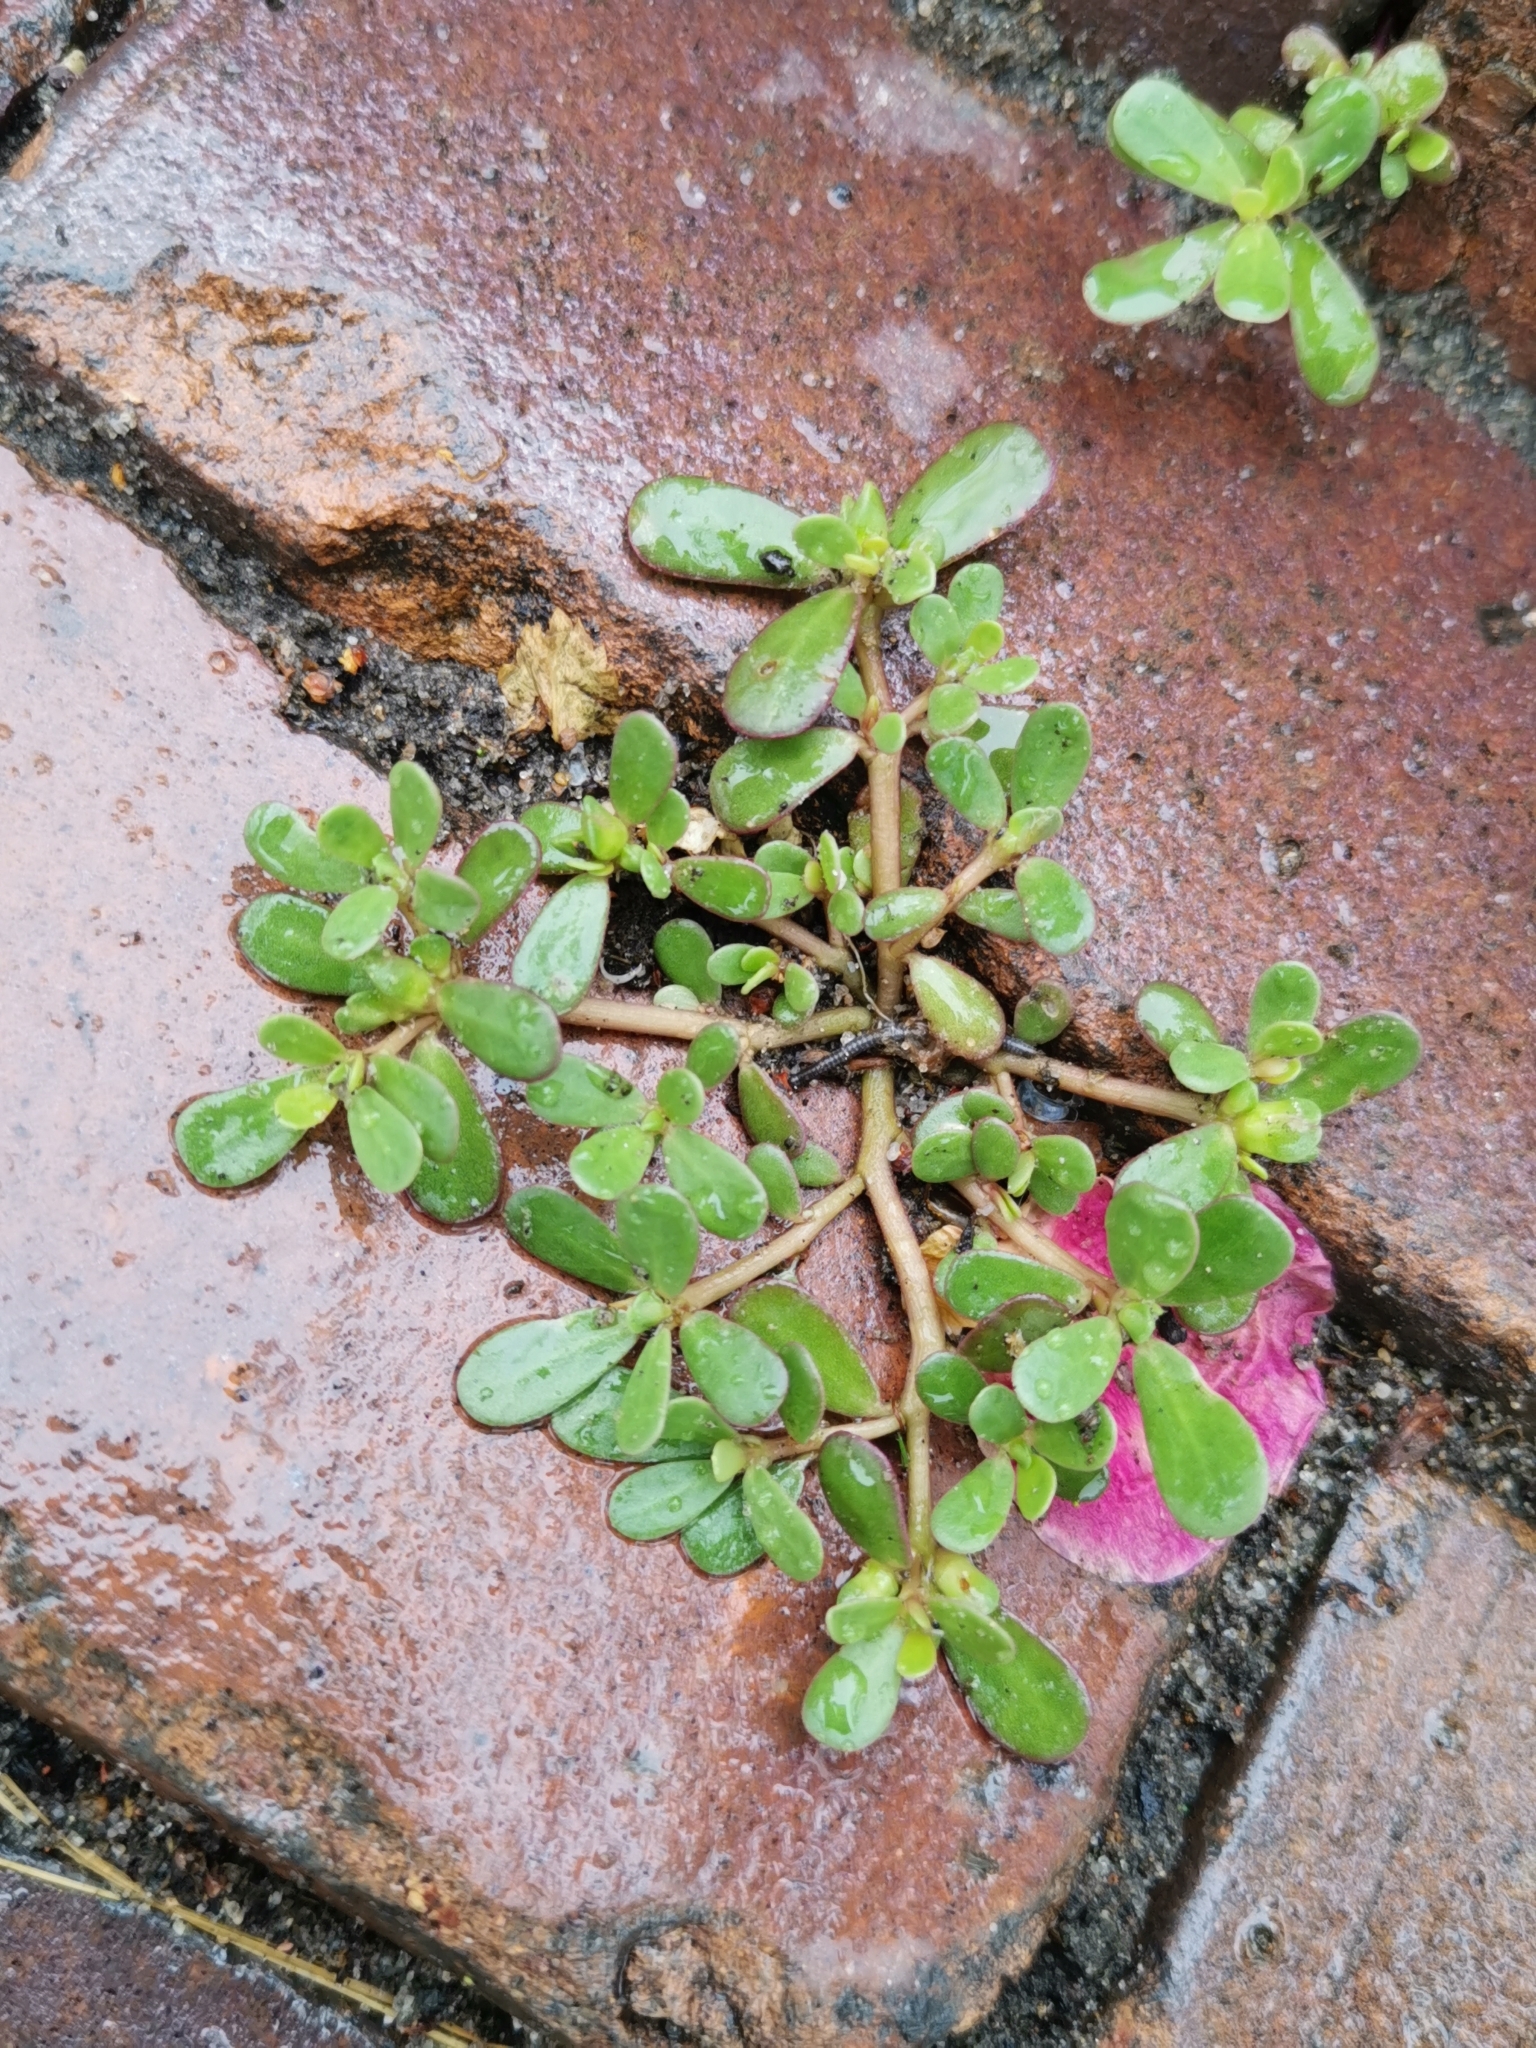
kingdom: Plantae
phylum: Tracheophyta
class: Magnoliopsida
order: Caryophyllales
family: Portulacaceae
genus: Portulaca
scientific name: Portulaca oleracea
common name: Common purslane
